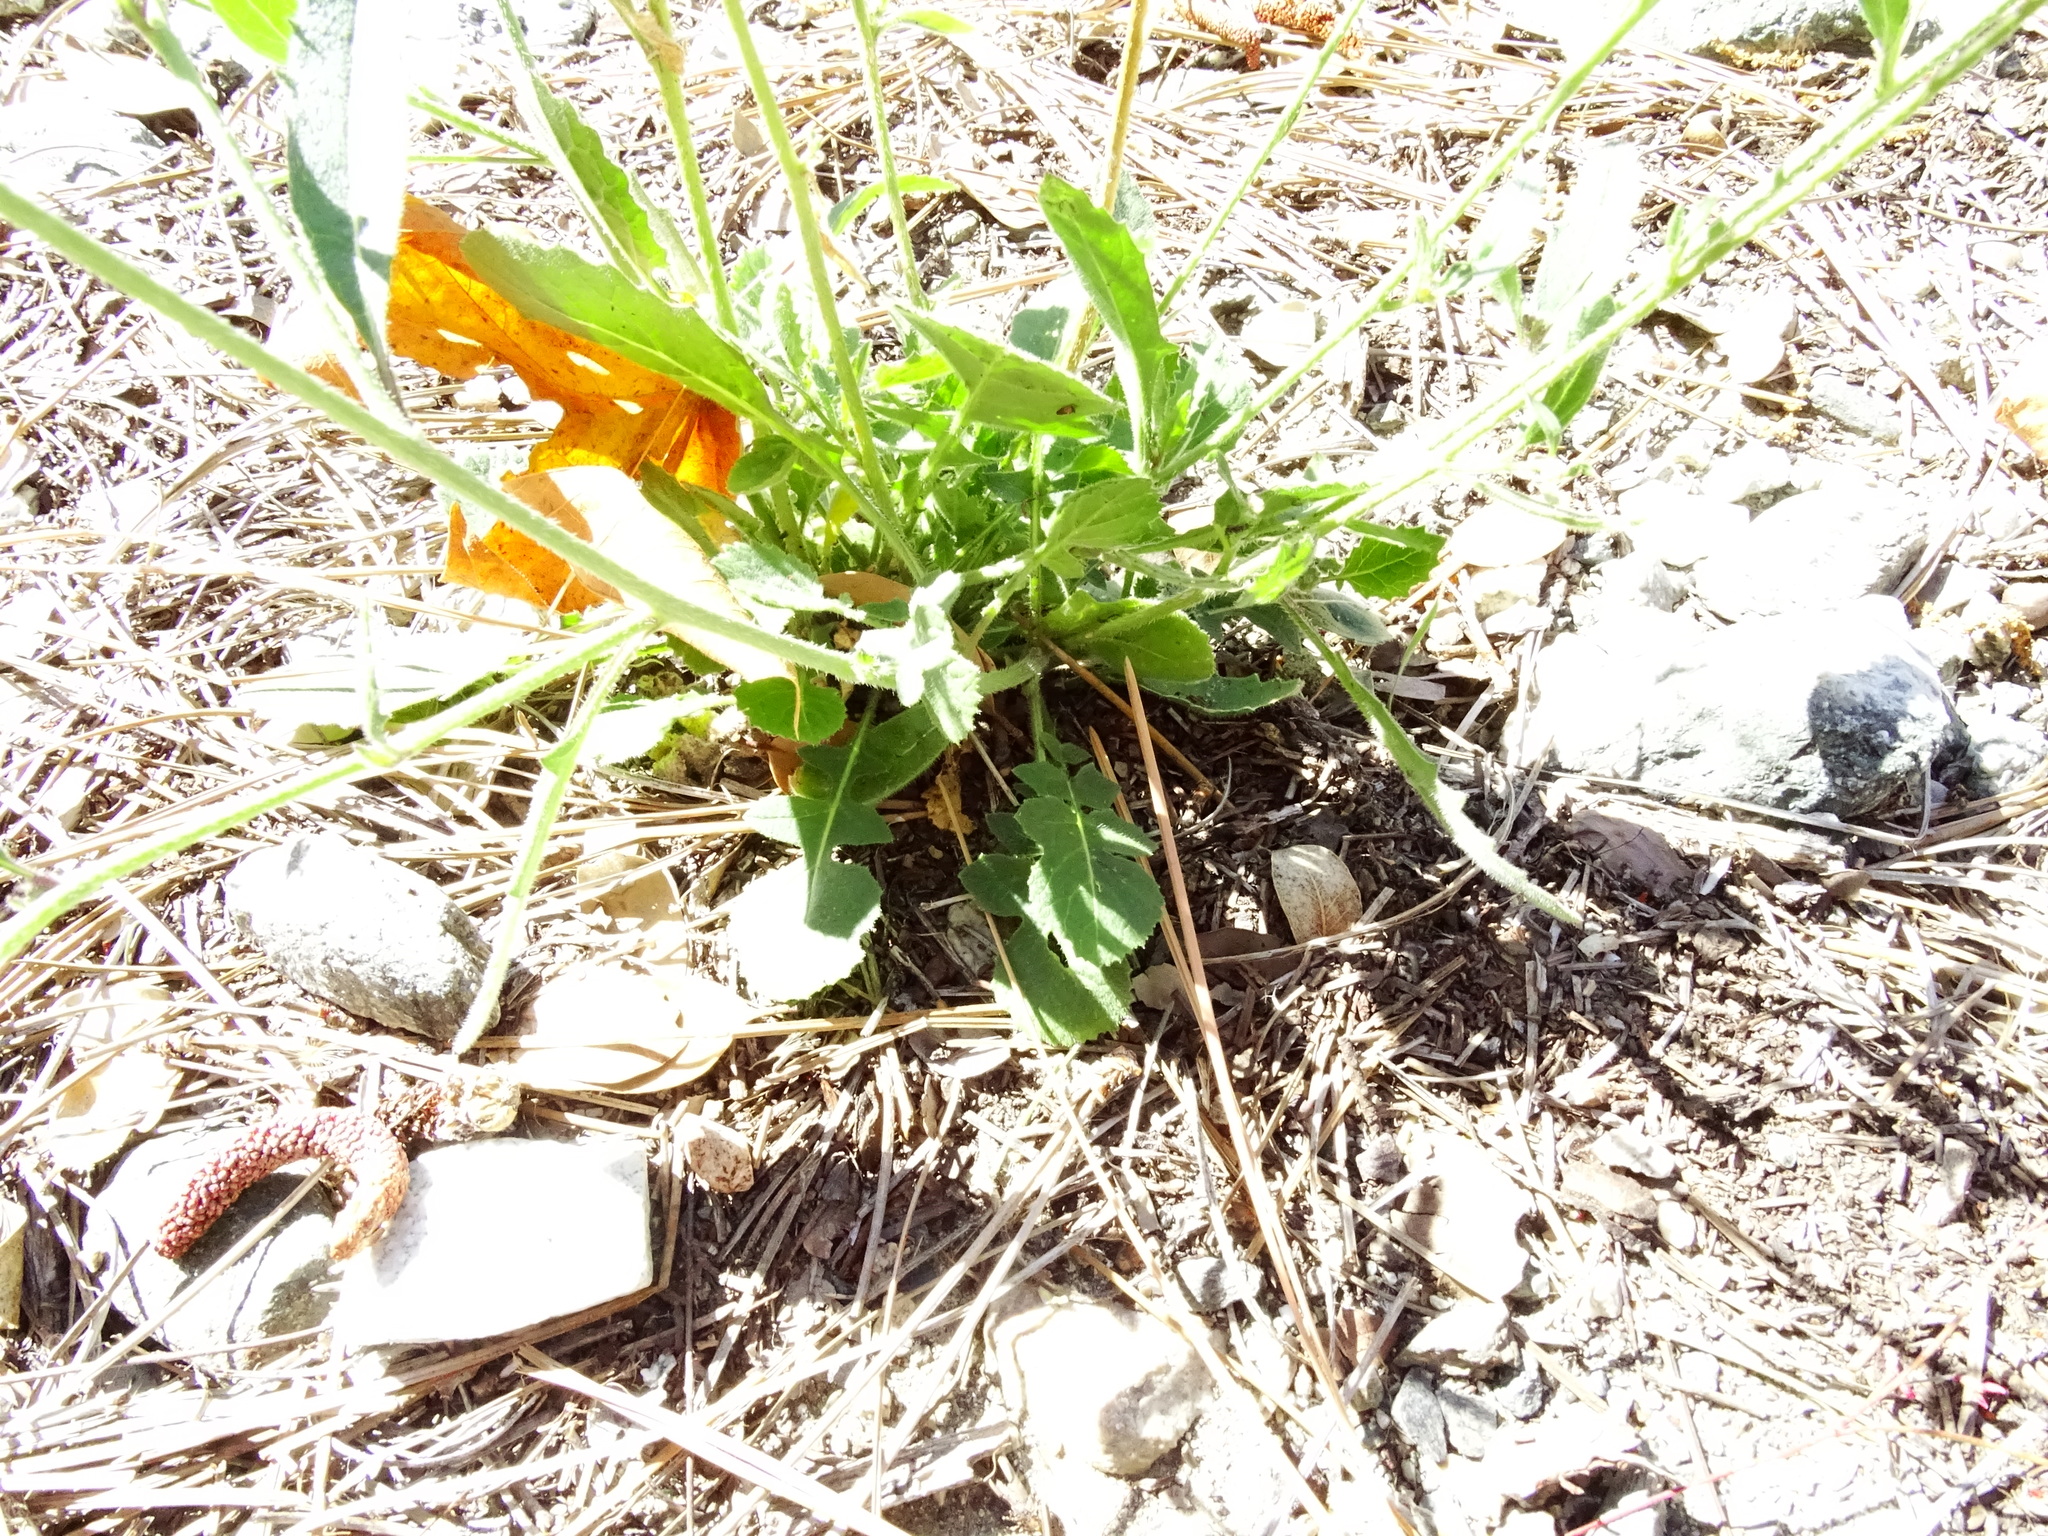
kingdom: Plantae
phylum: Tracheophyta
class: Magnoliopsida
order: Brassicales
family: Brassicaceae
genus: Hirschfeldia
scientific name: Hirschfeldia incana
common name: Hoary mustard
